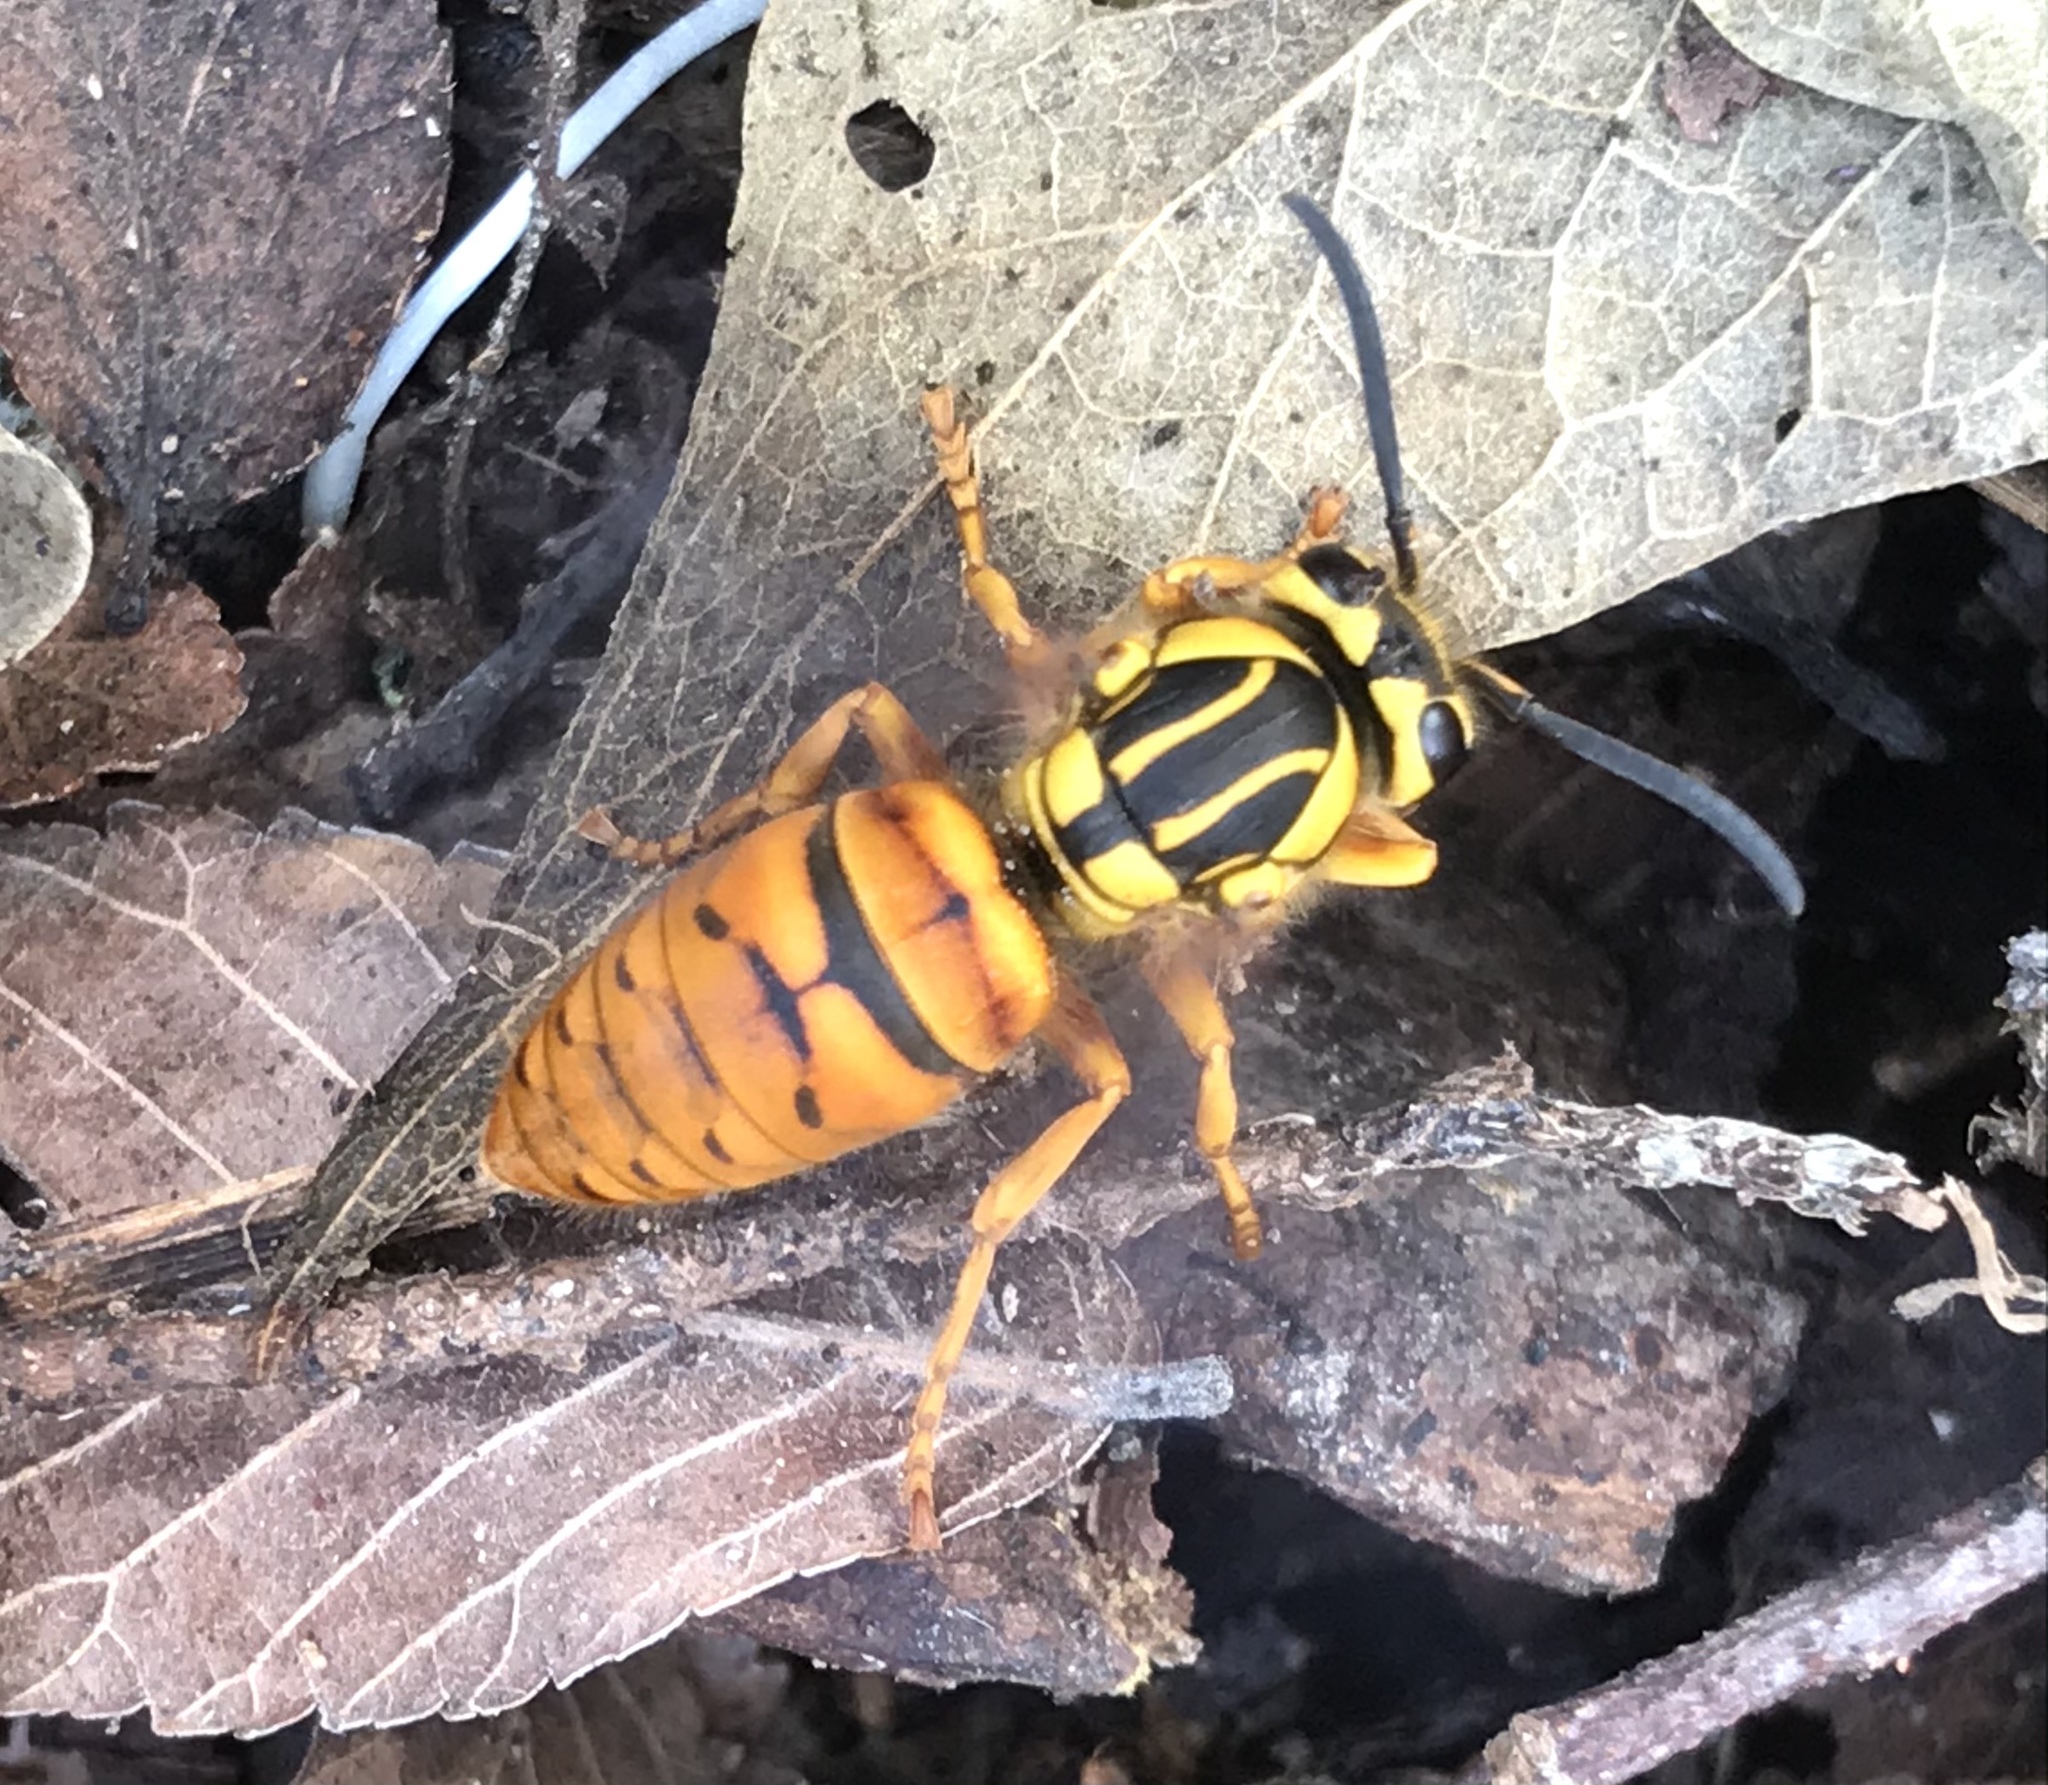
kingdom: Animalia
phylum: Arthropoda
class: Insecta
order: Hymenoptera
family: Vespidae
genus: Vespula
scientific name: Vespula squamosa
